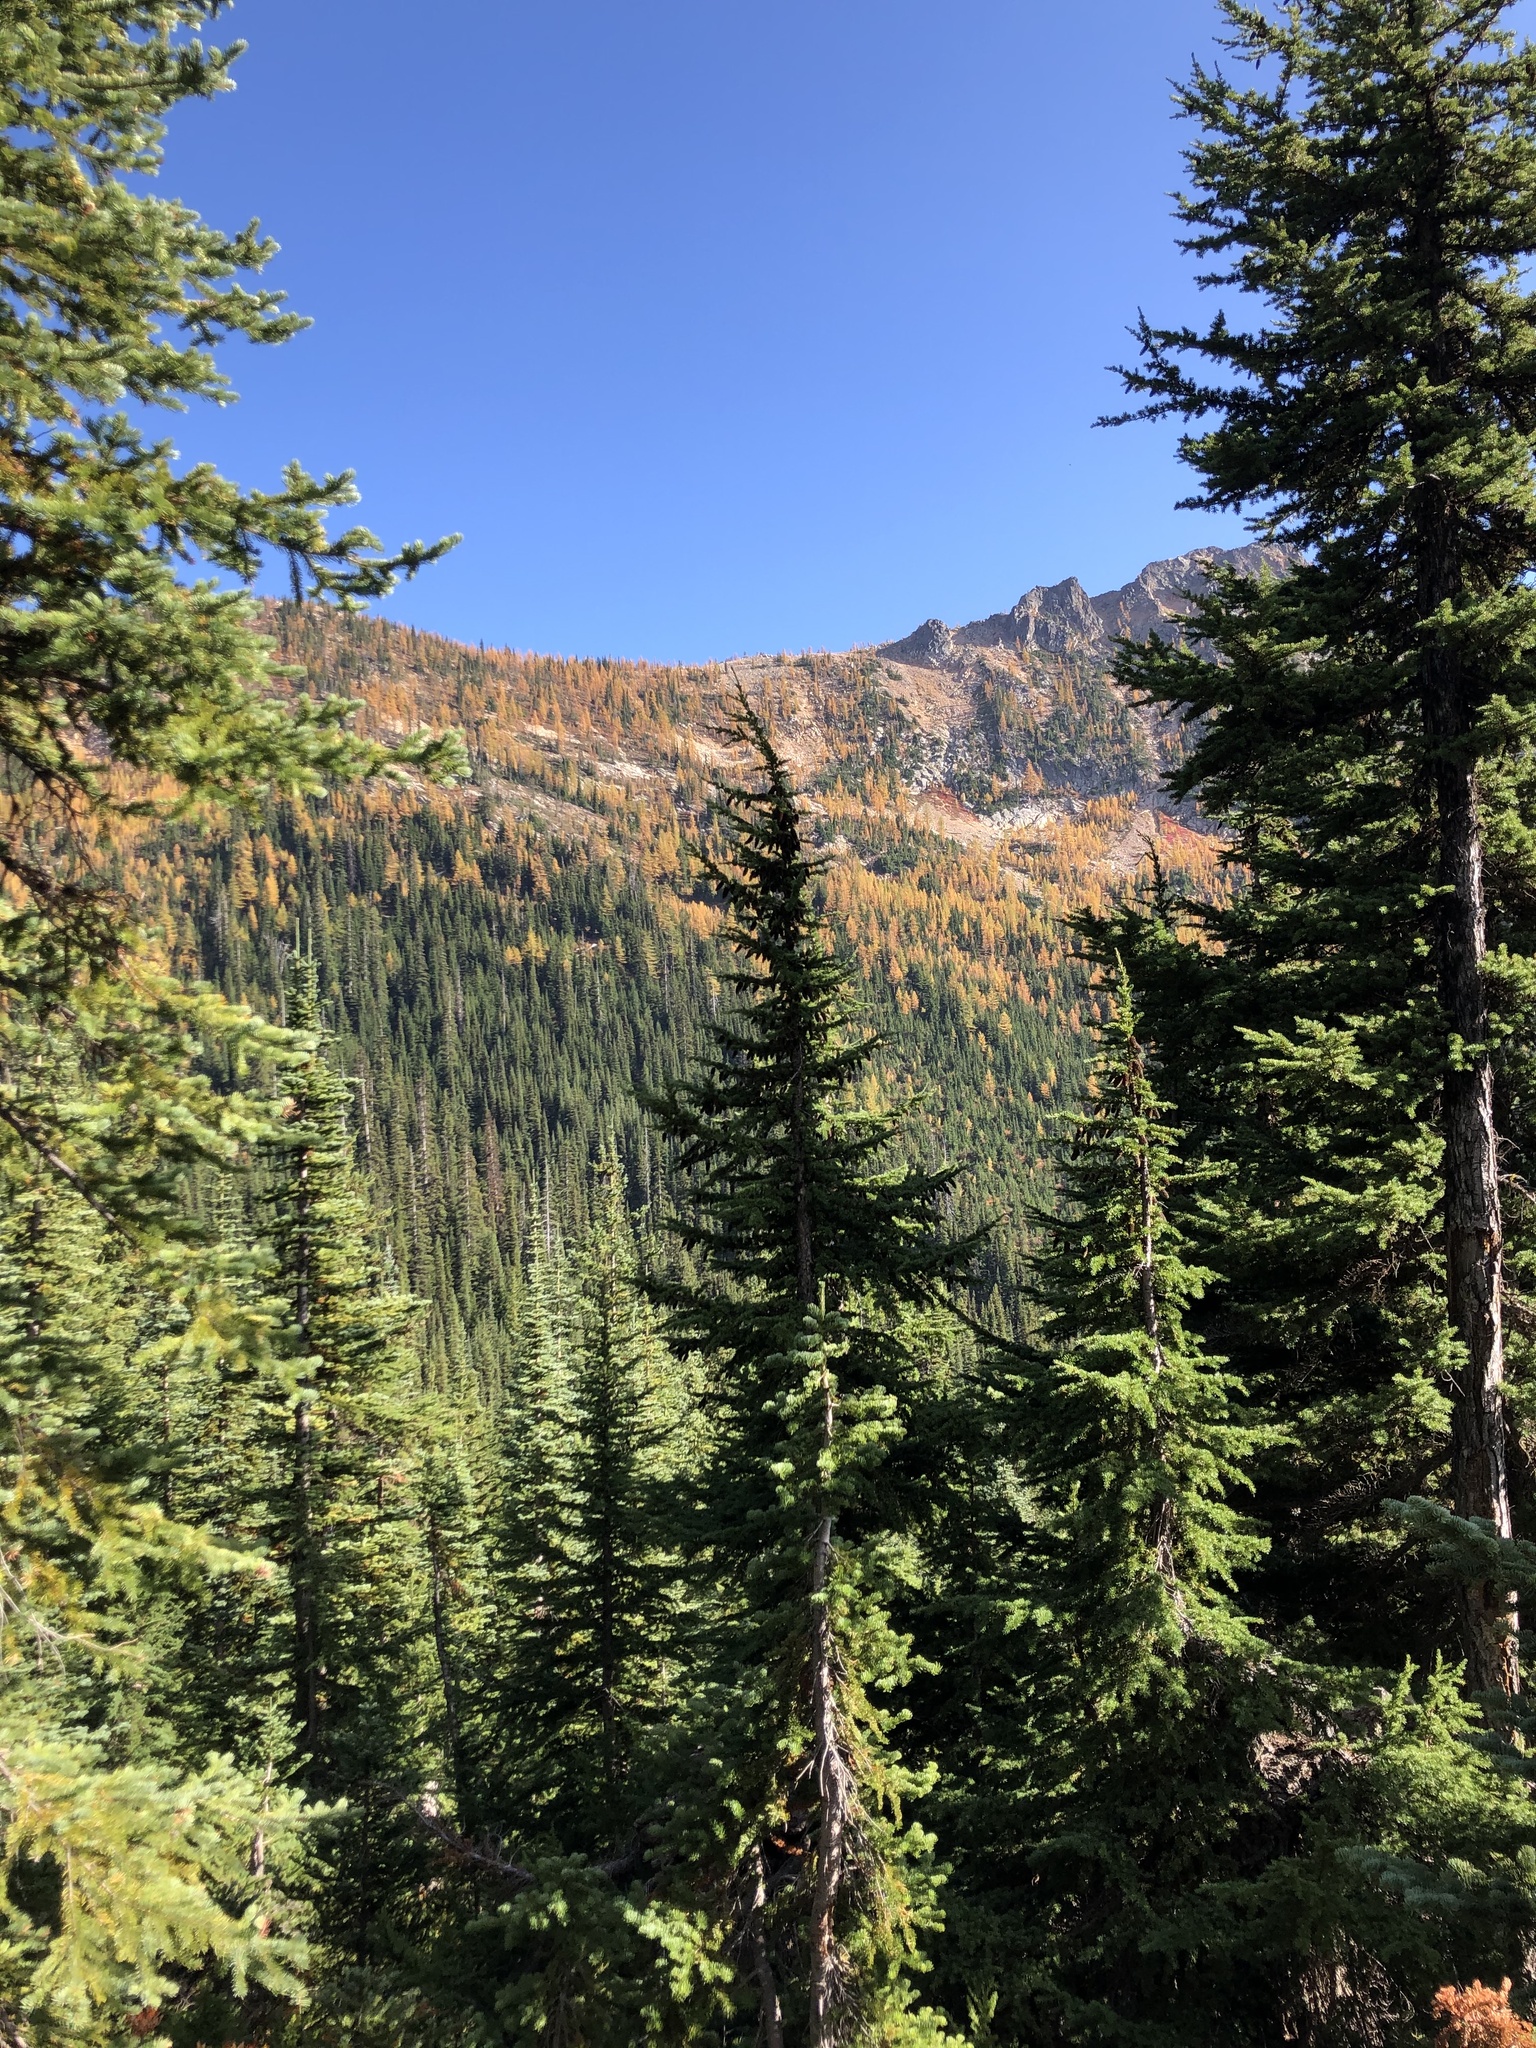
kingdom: Plantae
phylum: Tracheophyta
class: Pinopsida
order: Pinales
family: Pinaceae
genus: Tsuga
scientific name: Tsuga mertensiana
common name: Mountain hemlock
